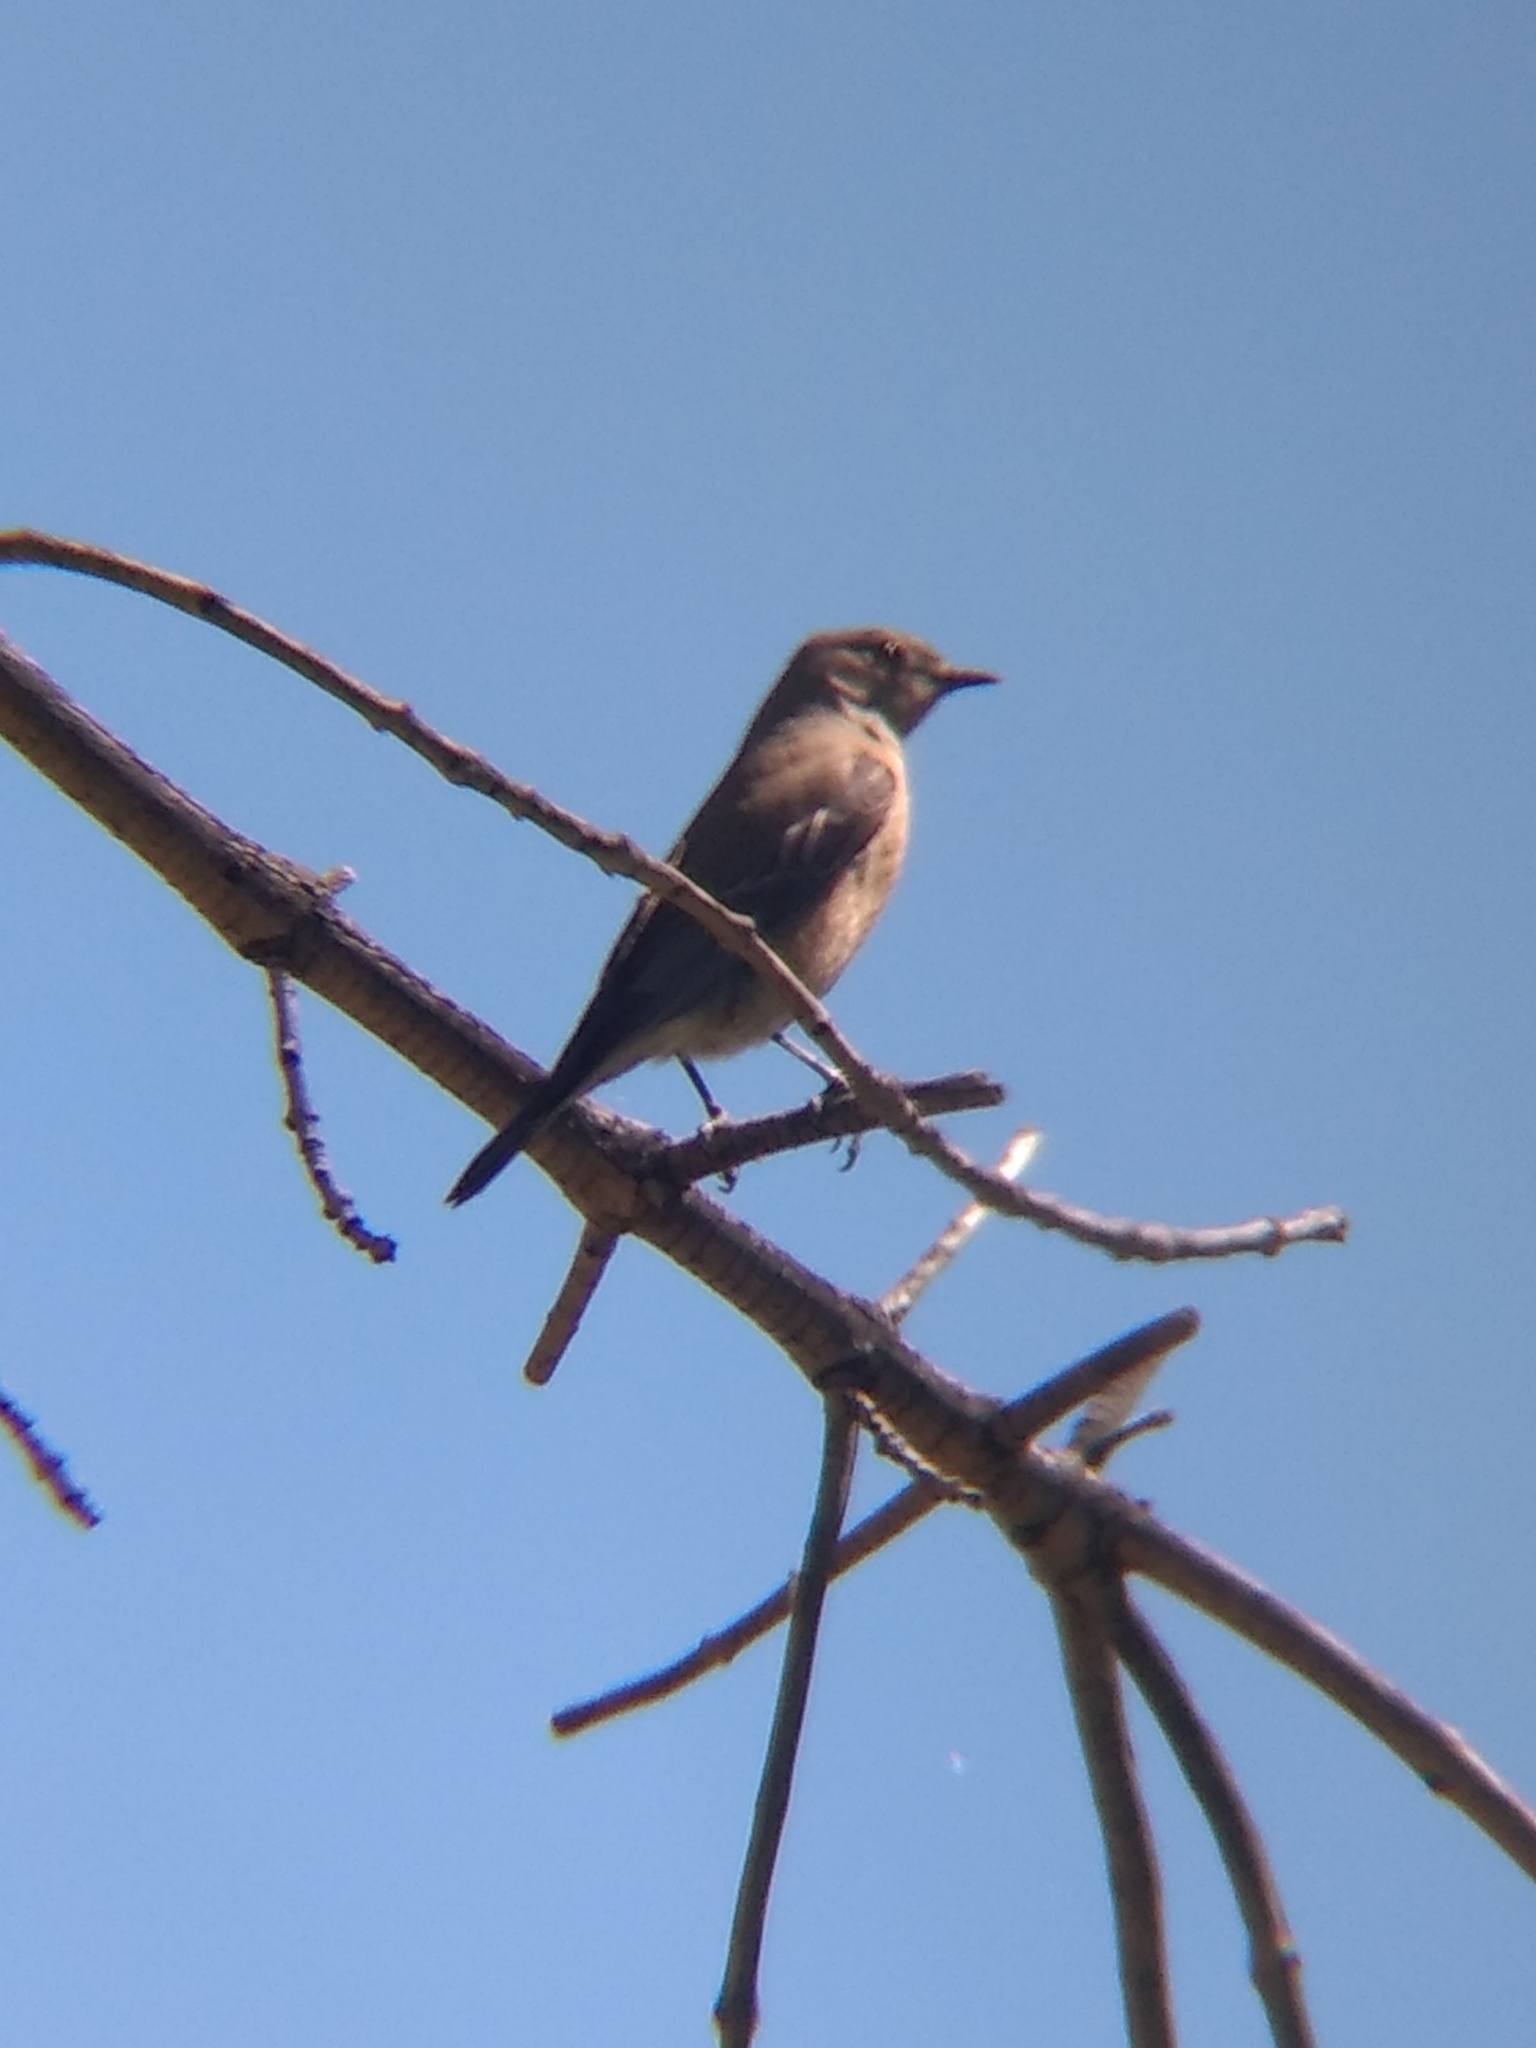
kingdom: Animalia
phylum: Chordata
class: Aves
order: Passeriformes
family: Turdidae
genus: Sialia
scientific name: Sialia mexicana
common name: Western bluebird
